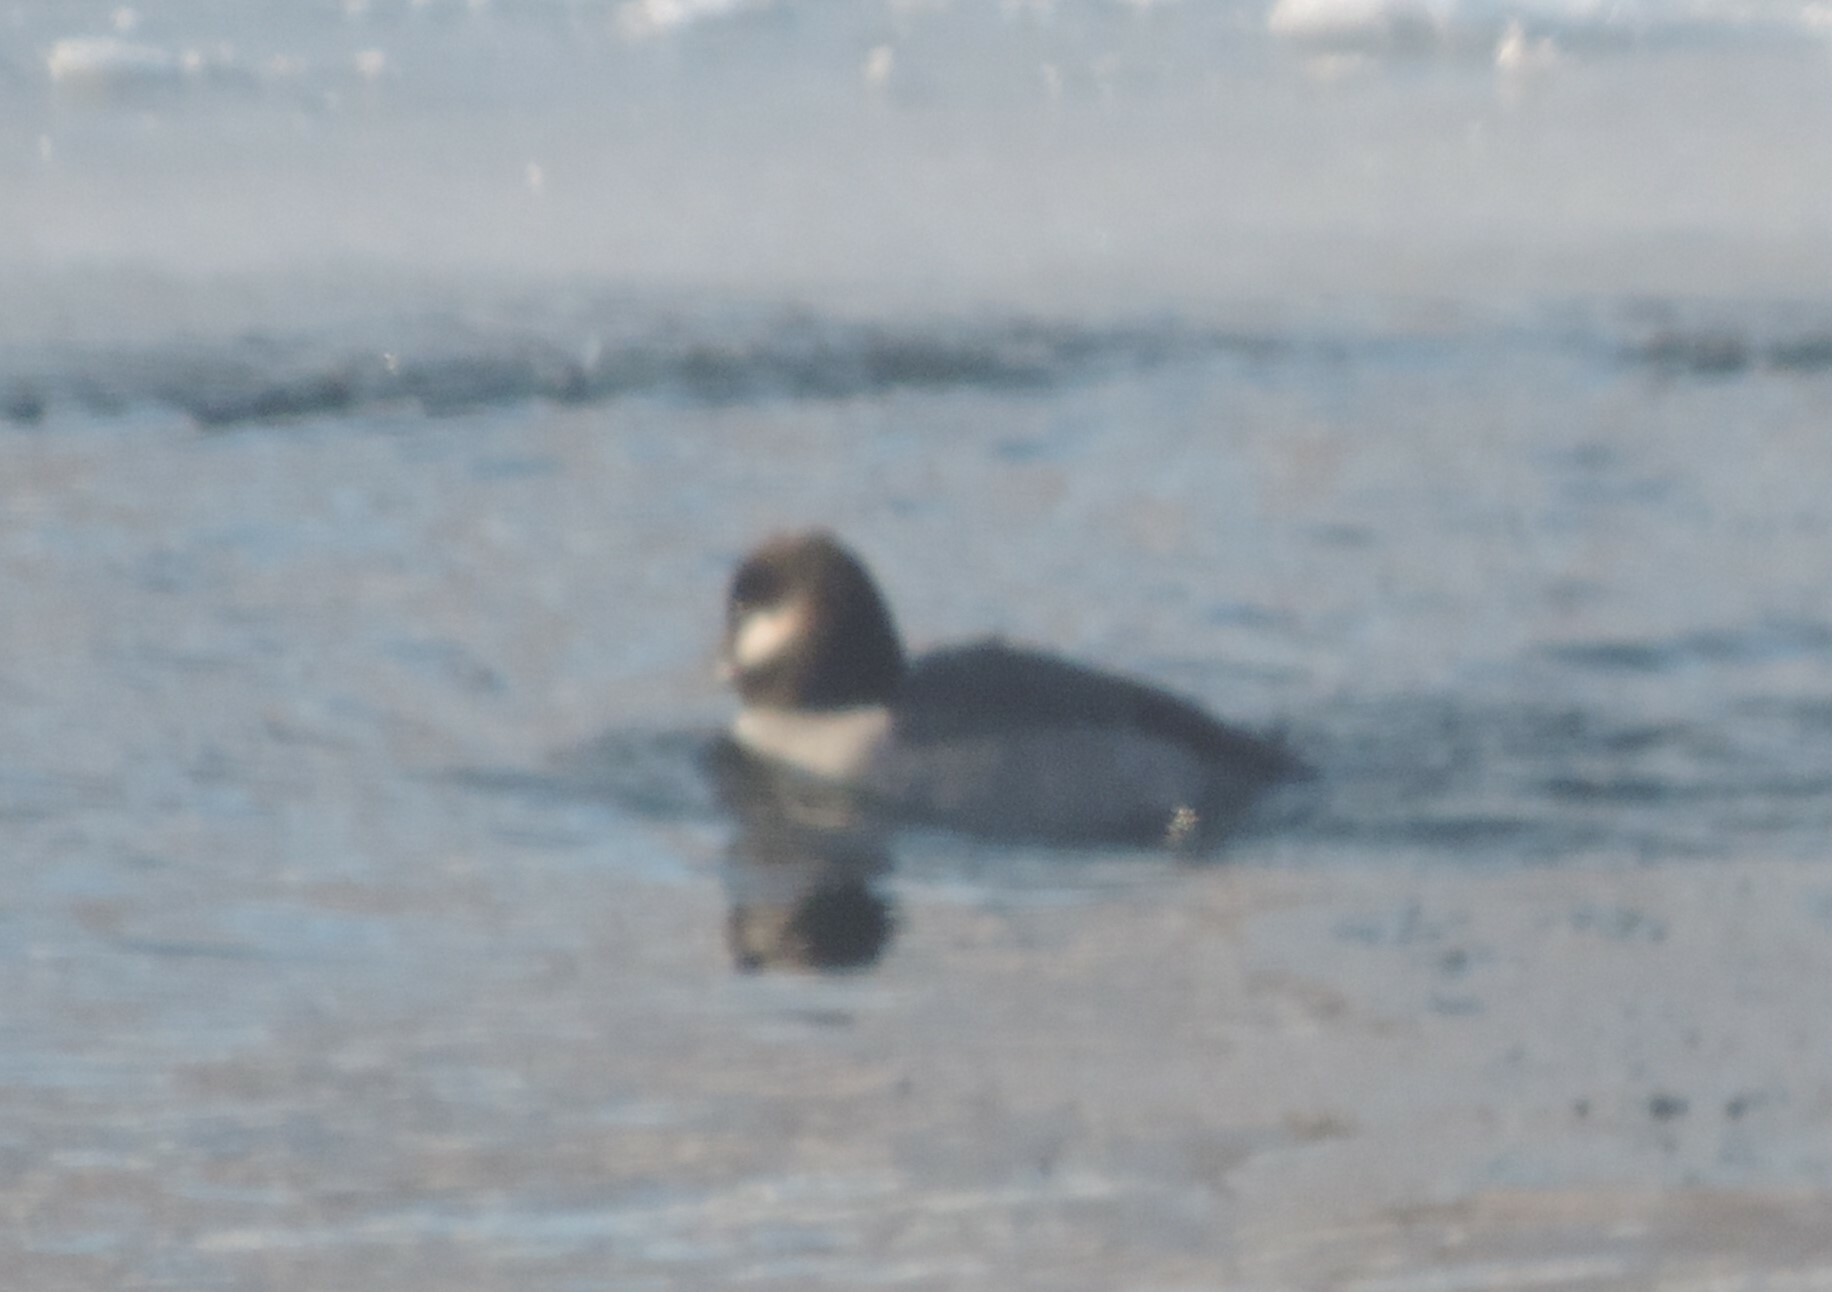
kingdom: Animalia
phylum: Chordata
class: Aves
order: Anseriformes
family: Anatidae
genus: Bucephala
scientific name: Bucephala albeola
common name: Bufflehead
